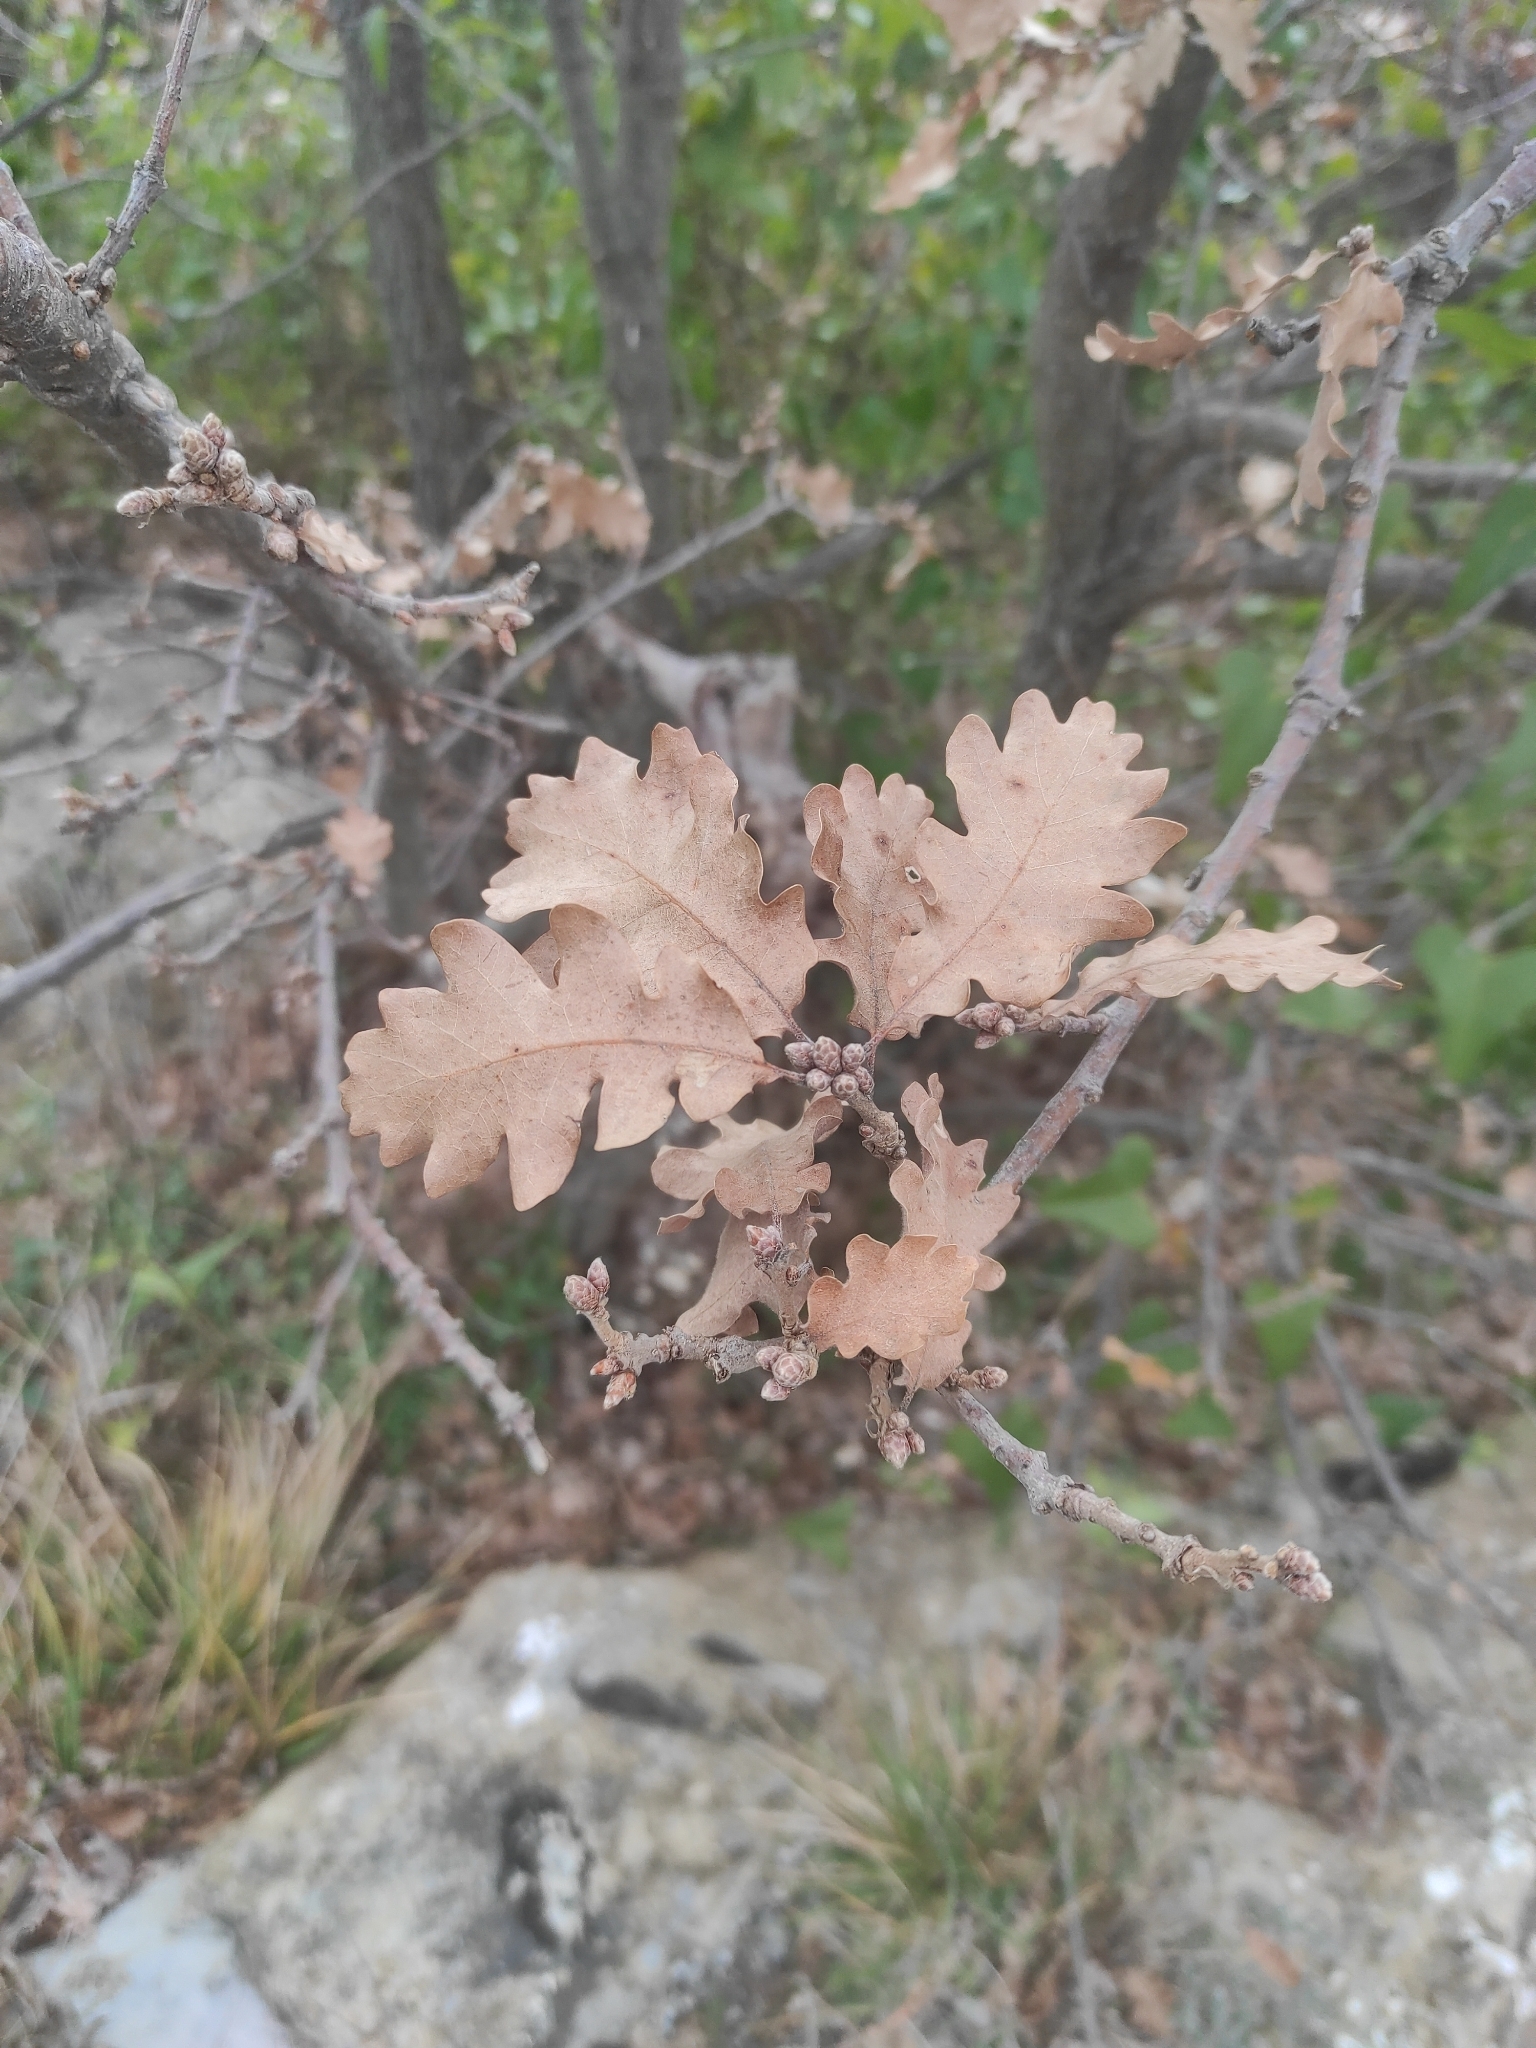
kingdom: Plantae
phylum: Tracheophyta
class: Magnoliopsida
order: Fagales
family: Fagaceae
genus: Quercus
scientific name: Quercus pubescens
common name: Downy oak
